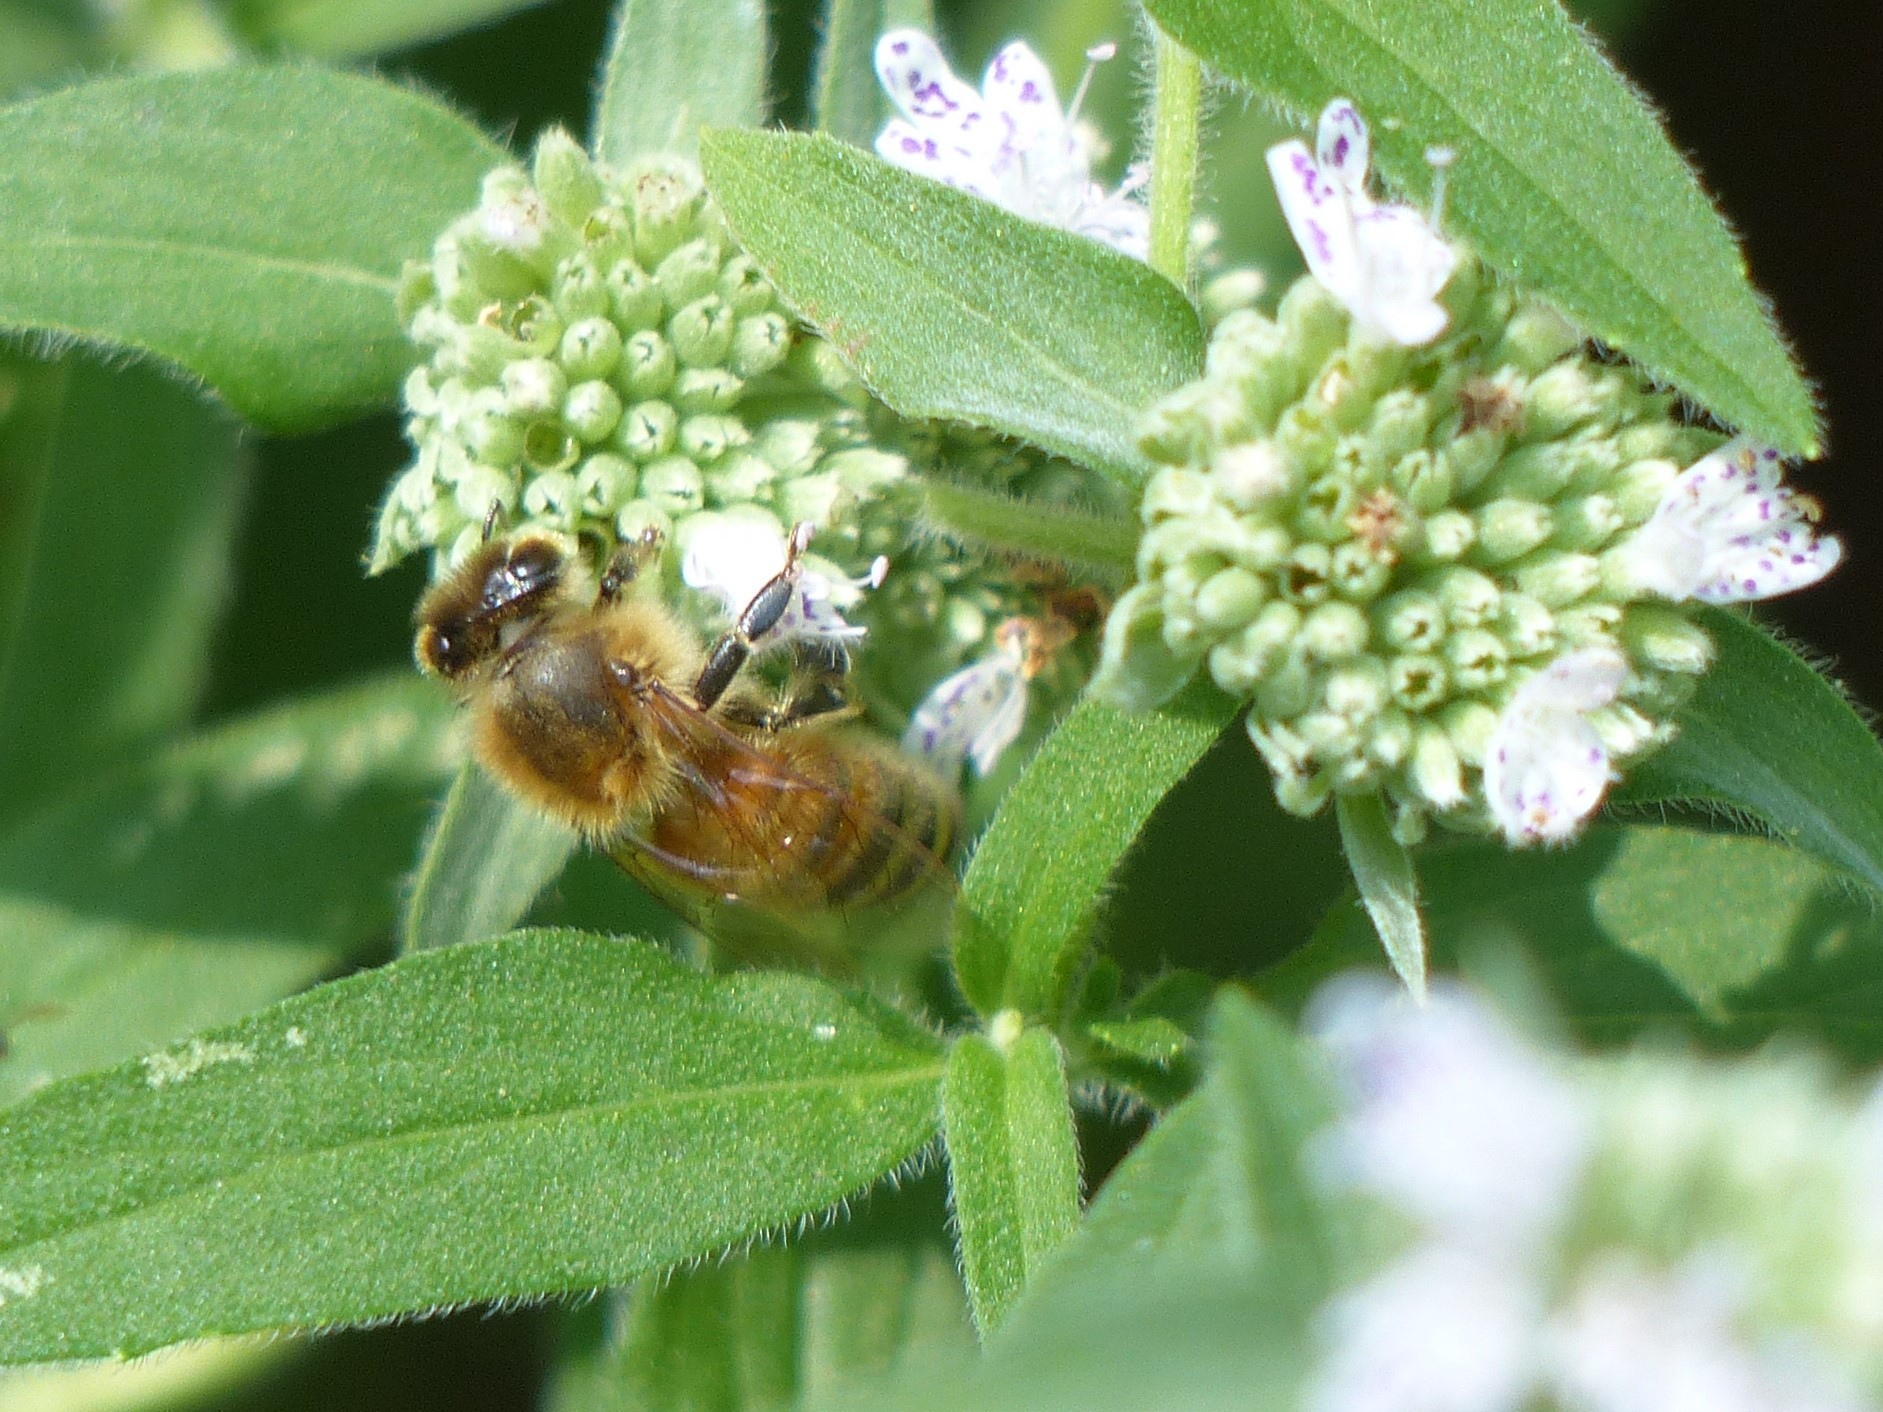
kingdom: Animalia
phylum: Arthropoda
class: Insecta
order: Hymenoptera
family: Apidae
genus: Apis
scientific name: Apis mellifera
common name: Honey bee
